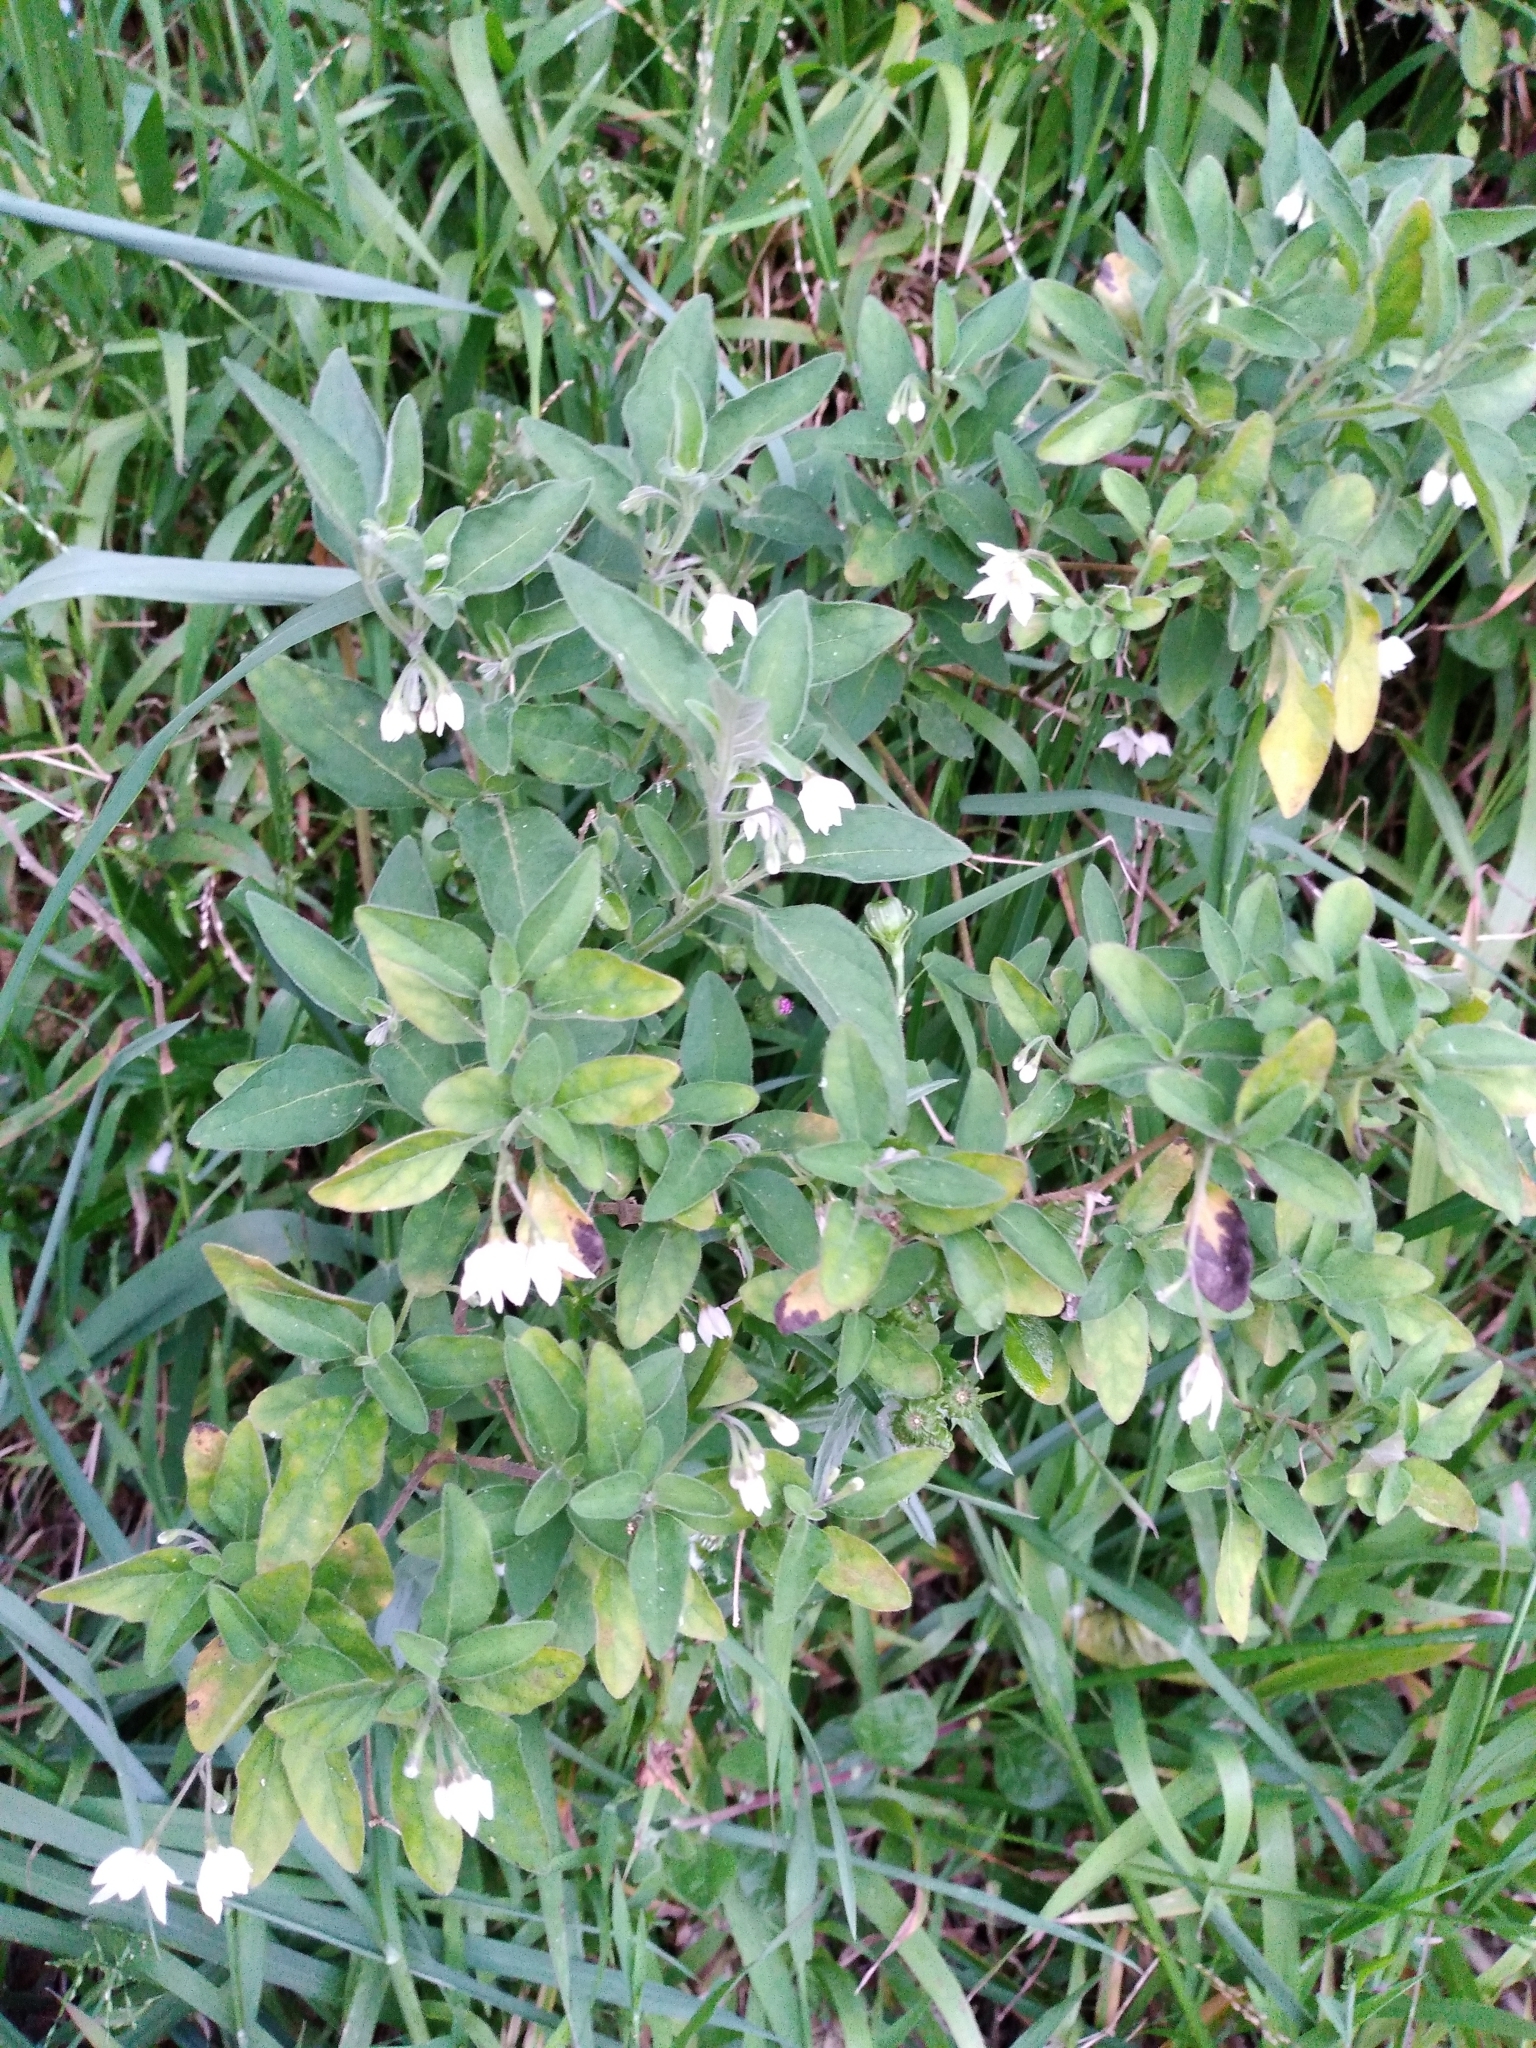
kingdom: Plantae
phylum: Tracheophyta
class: Magnoliopsida
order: Solanales
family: Solanaceae
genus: Solanum
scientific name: Solanum chenopodioides
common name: Tall nightshade
